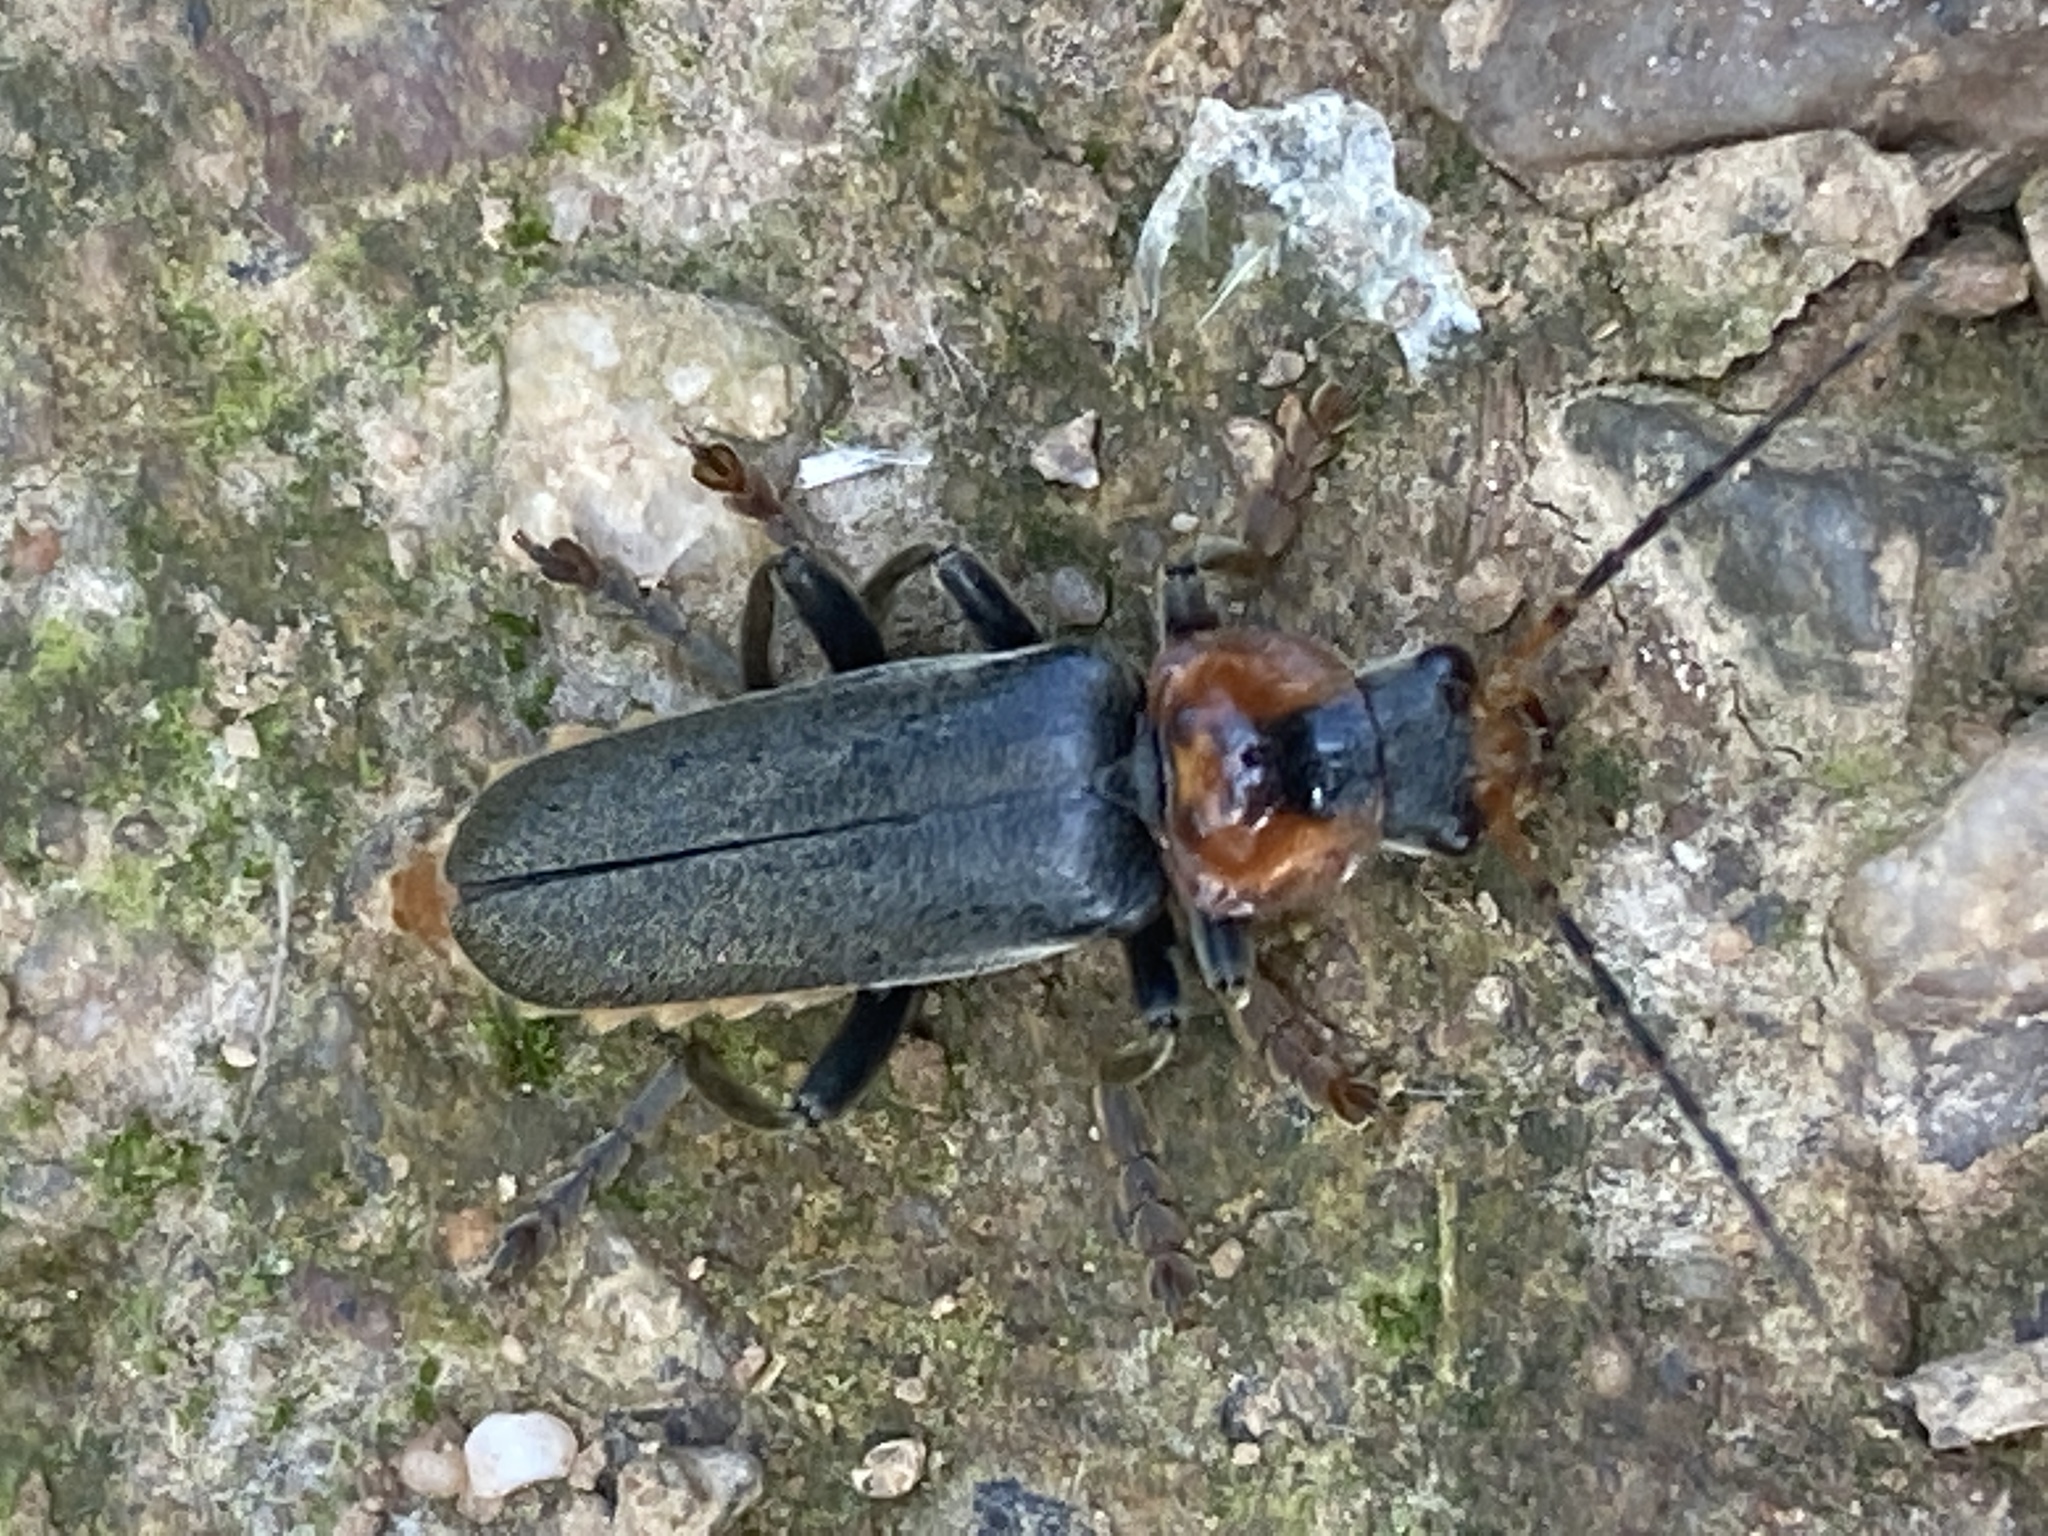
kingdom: Animalia
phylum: Arthropoda
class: Insecta
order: Coleoptera
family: Cantharidae
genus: Cantharis
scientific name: Cantharis fusca
